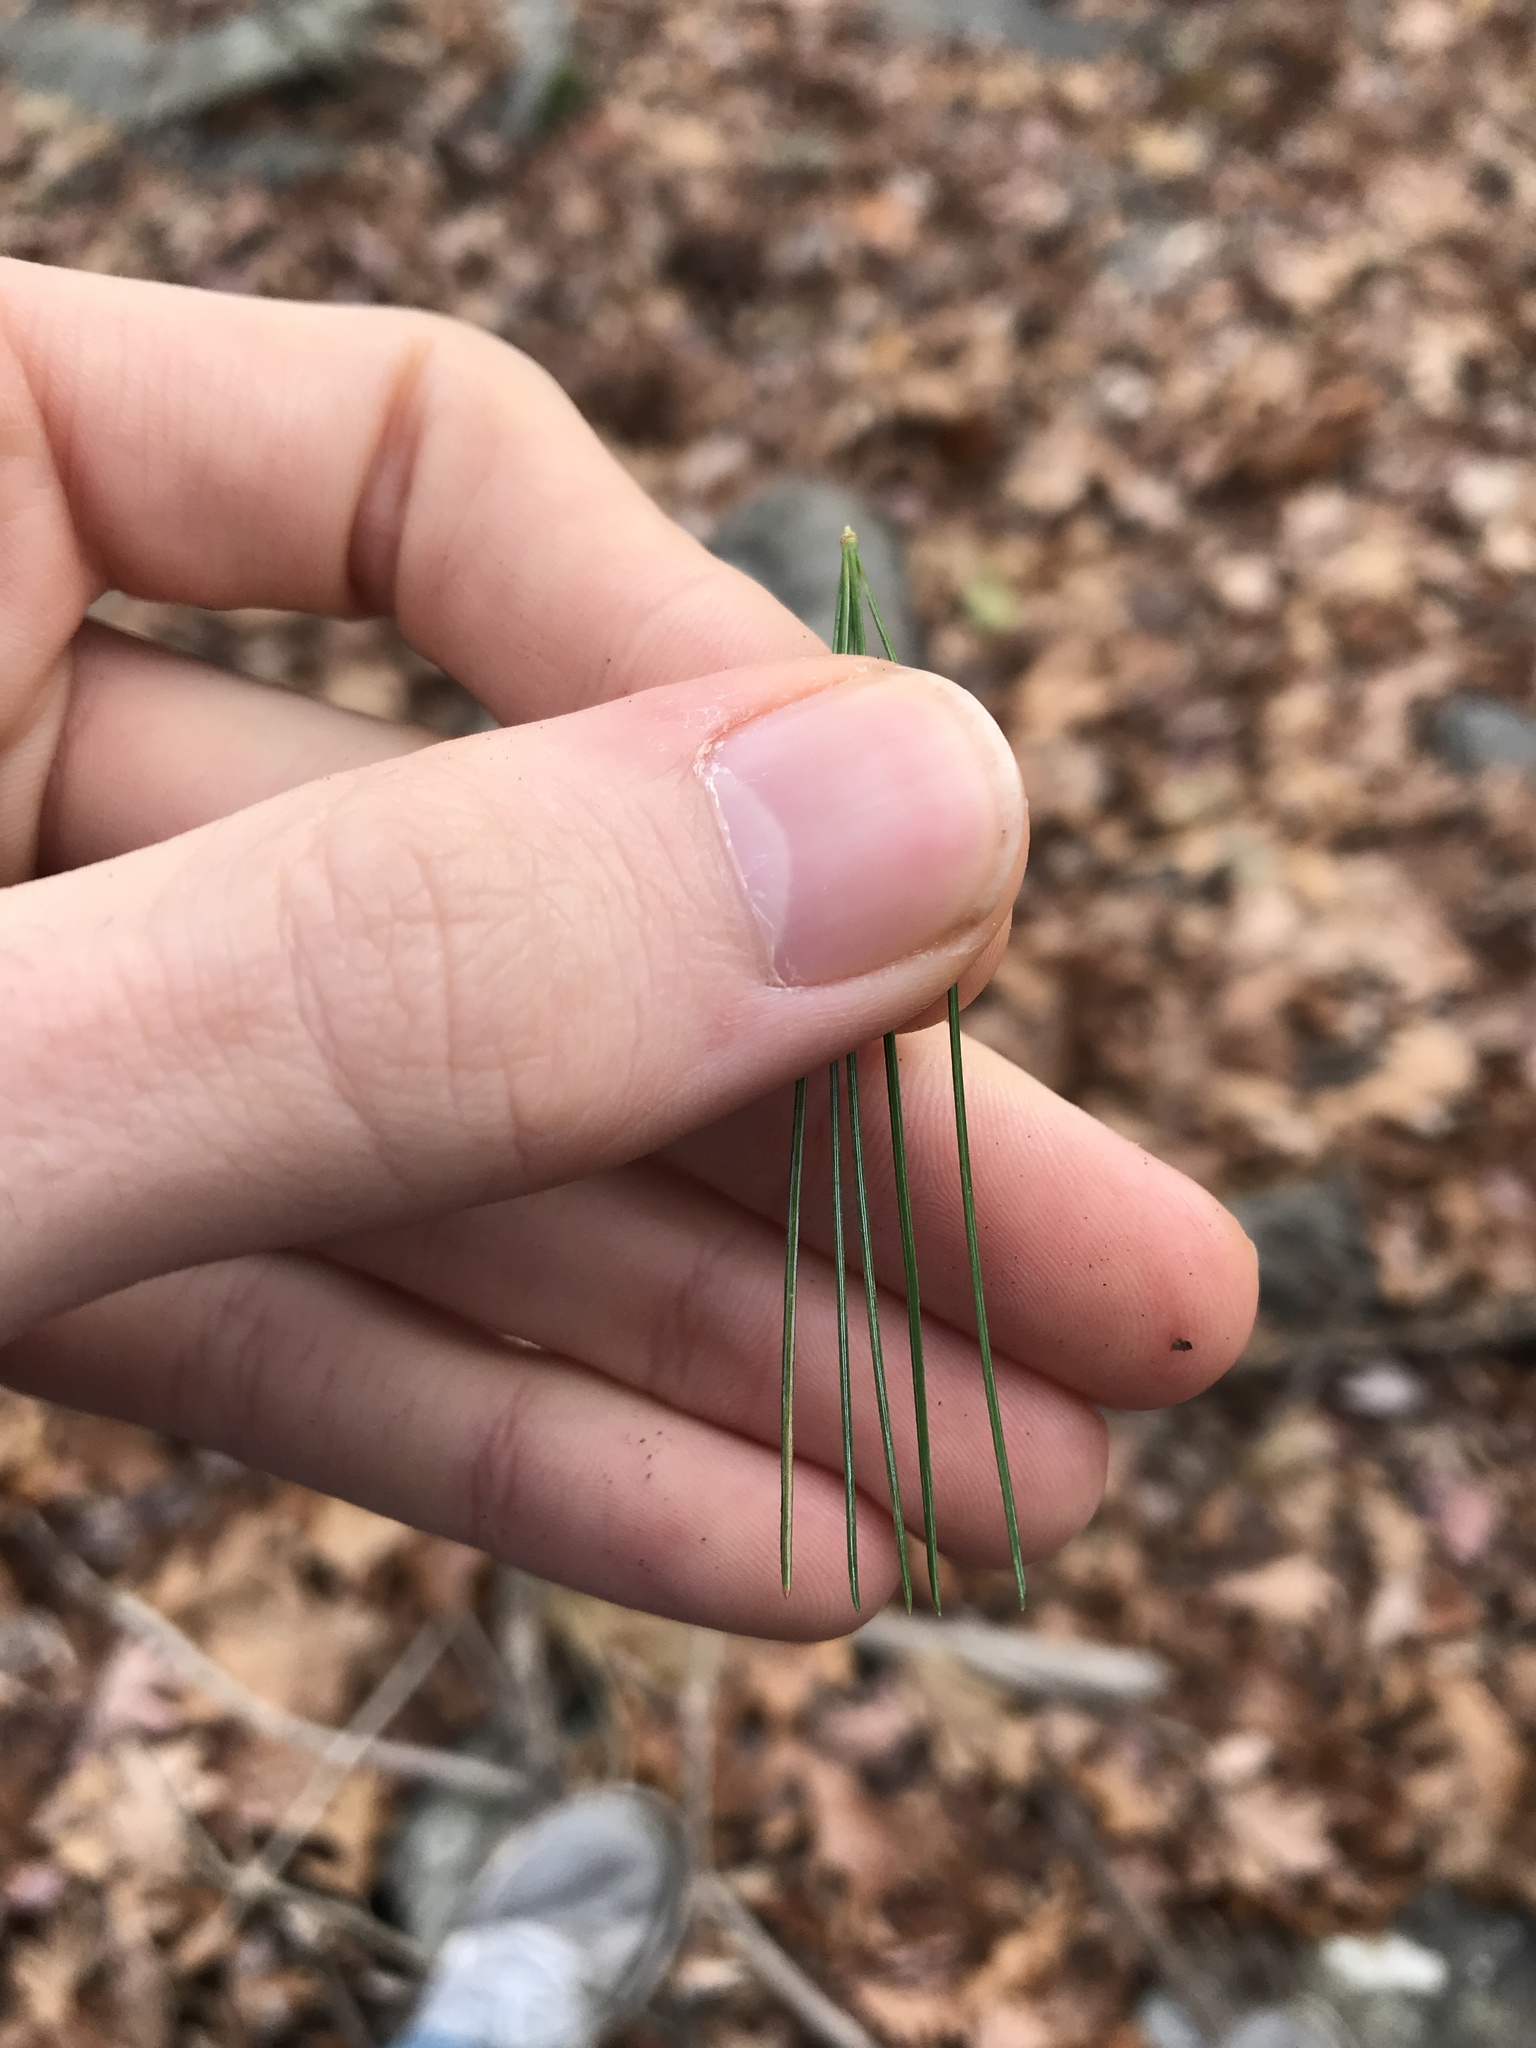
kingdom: Plantae
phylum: Tracheophyta
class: Pinopsida
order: Pinales
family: Pinaceae
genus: Pinus
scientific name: Pinus strobus
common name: Weymouth pine
